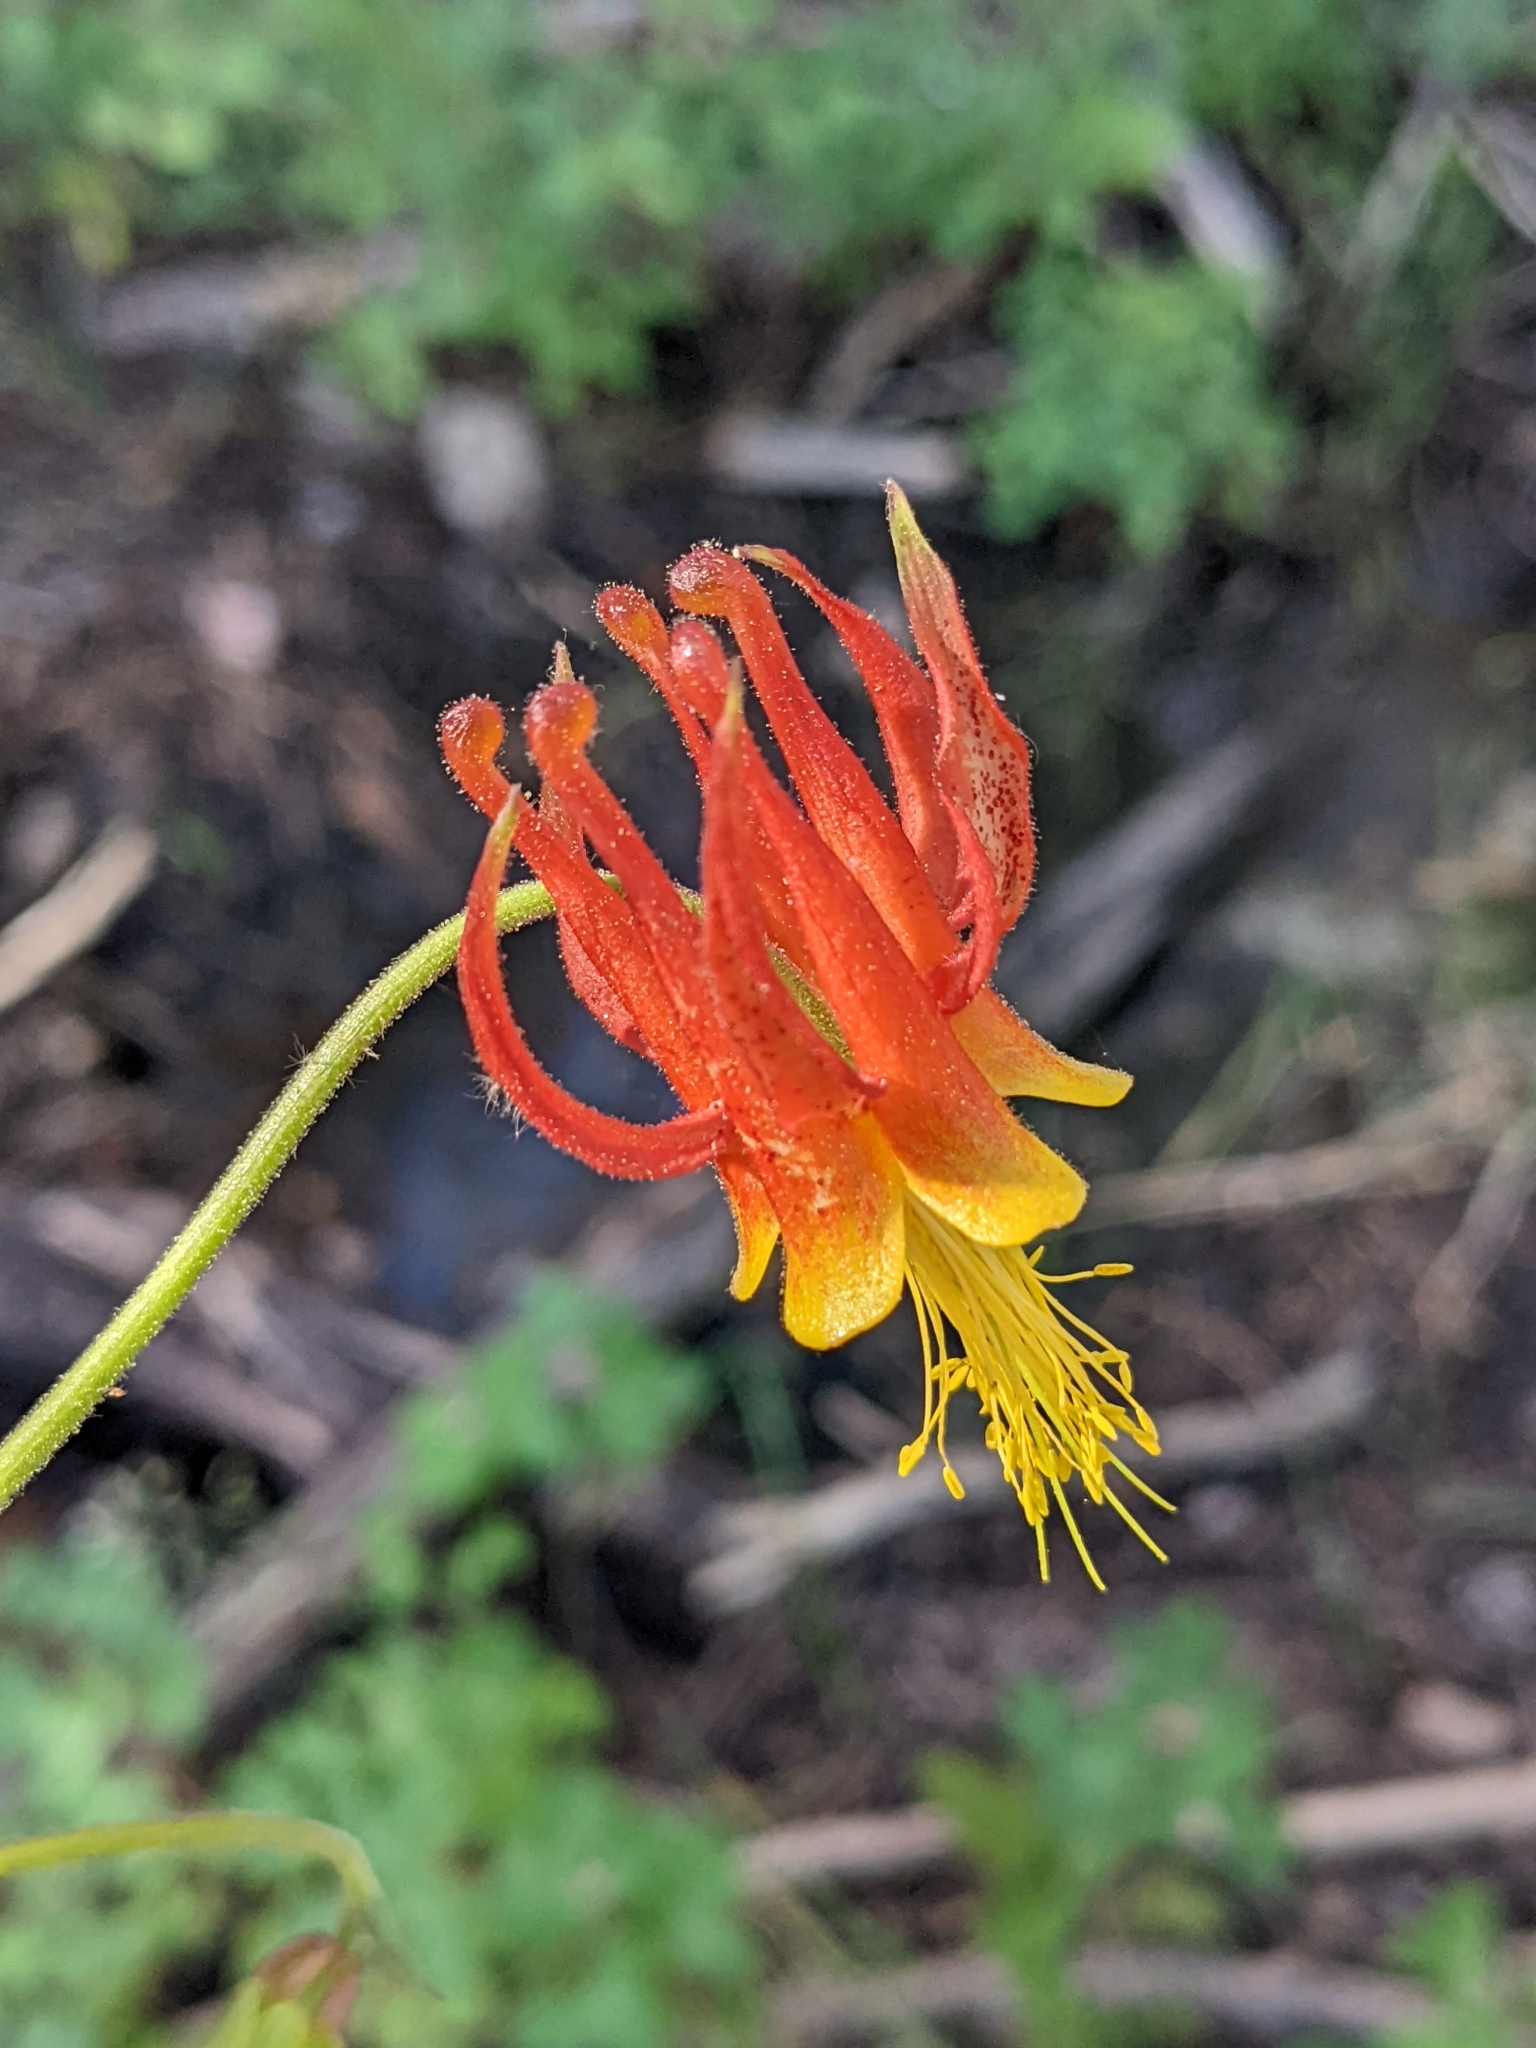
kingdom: Plantae
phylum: Tracheophyta
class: Magnoliopsida
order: Ranunculales
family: Ranunculaceae
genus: Aquilegia
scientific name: Aquilegia formosa
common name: Sitka columbine
